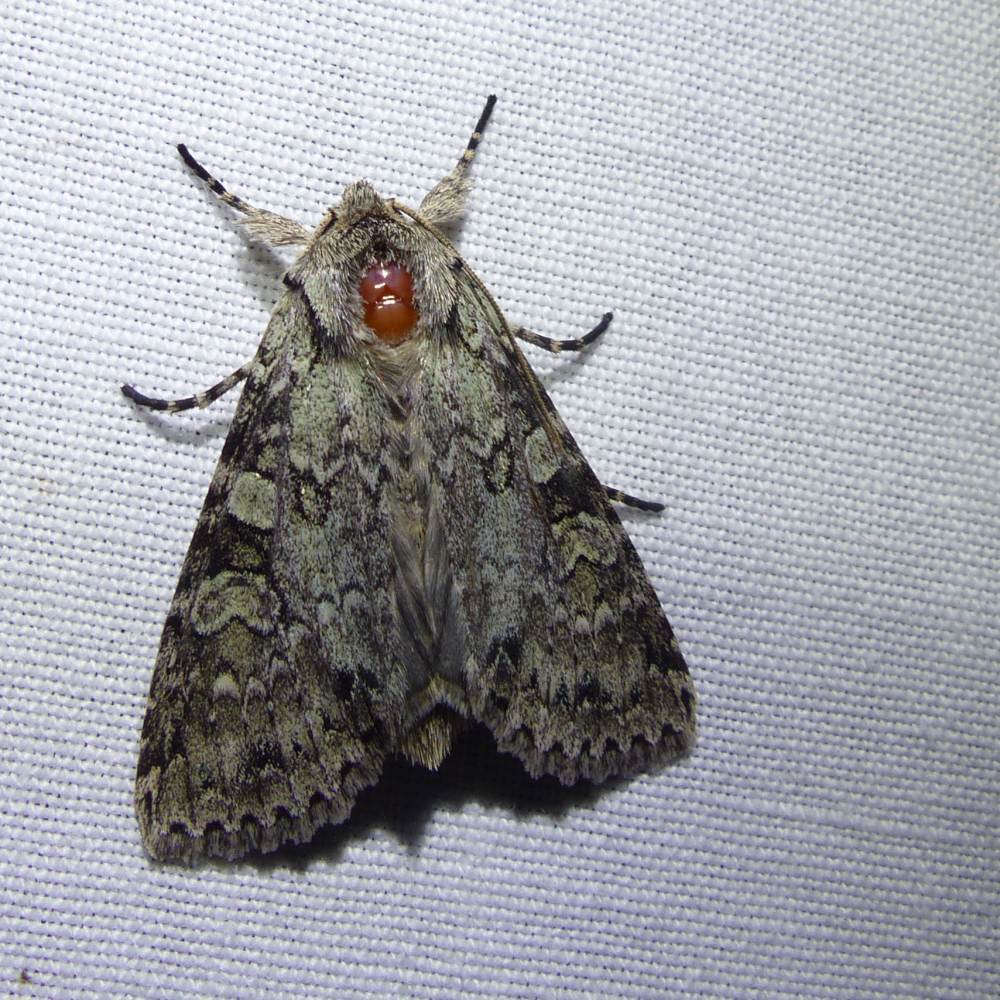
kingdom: Animalia
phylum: Arthropoda
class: Insecta
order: Lepidoptera
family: Noctuidae
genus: Polia
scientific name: Polia nimbosa
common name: Stormy arches
